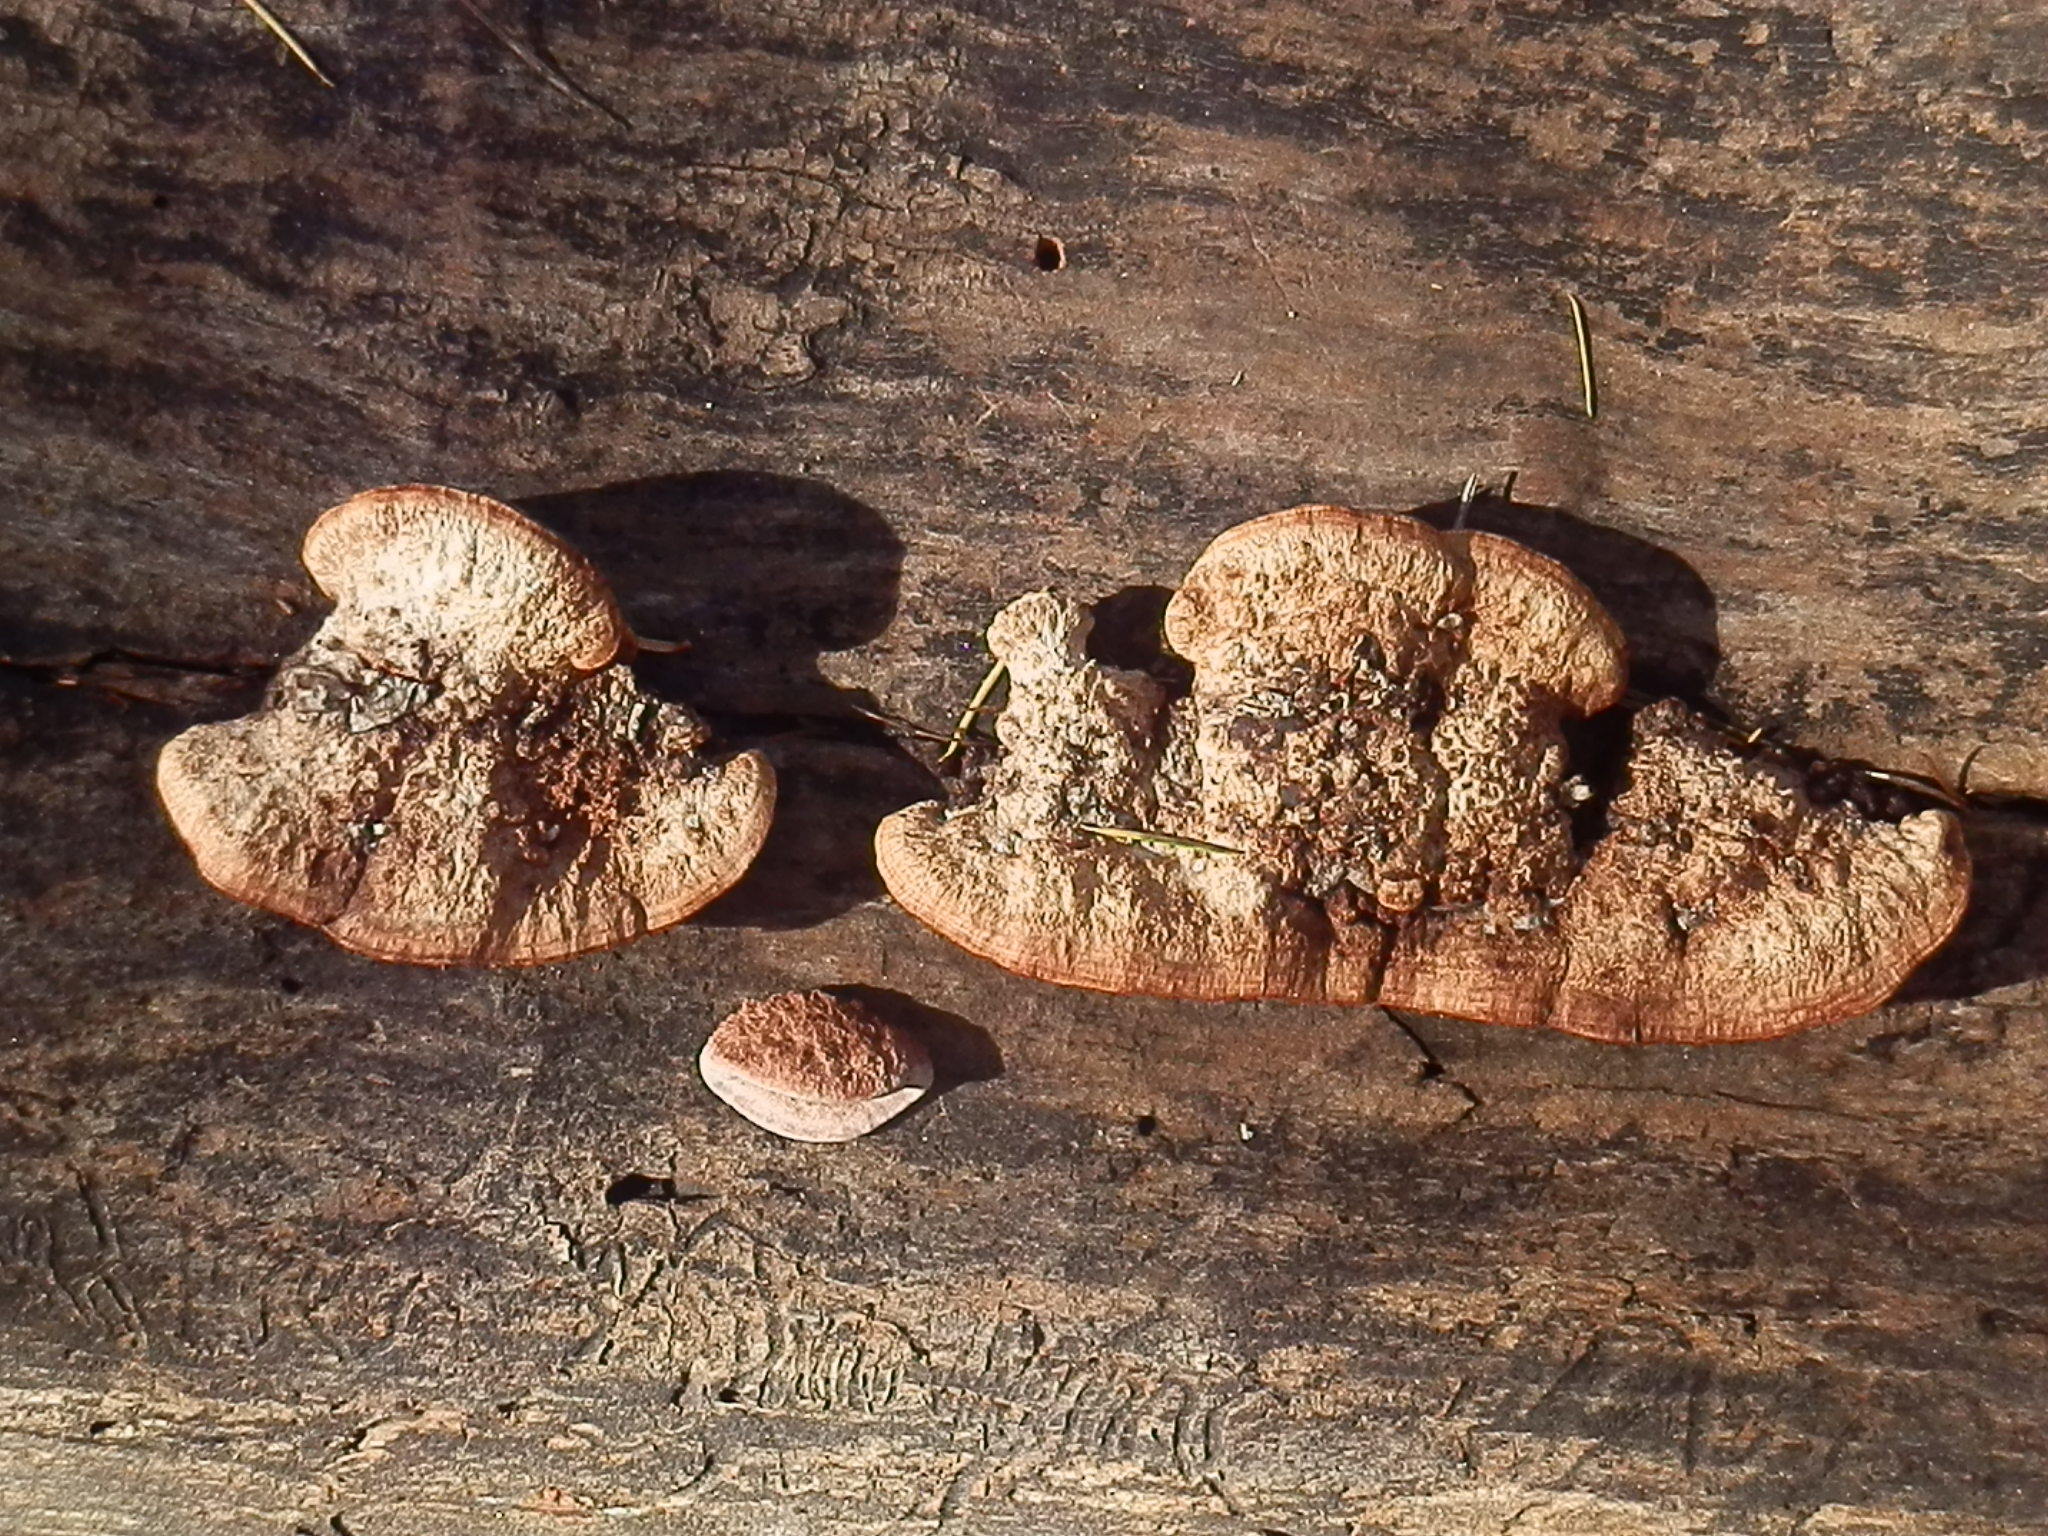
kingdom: Fungi
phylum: Basidiomycota
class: Agaricomycetes
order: Polyporales
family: Fomitopsidaceae
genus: Rhodofomes
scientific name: Rhodofomes cajanderi
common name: Rosy conk
